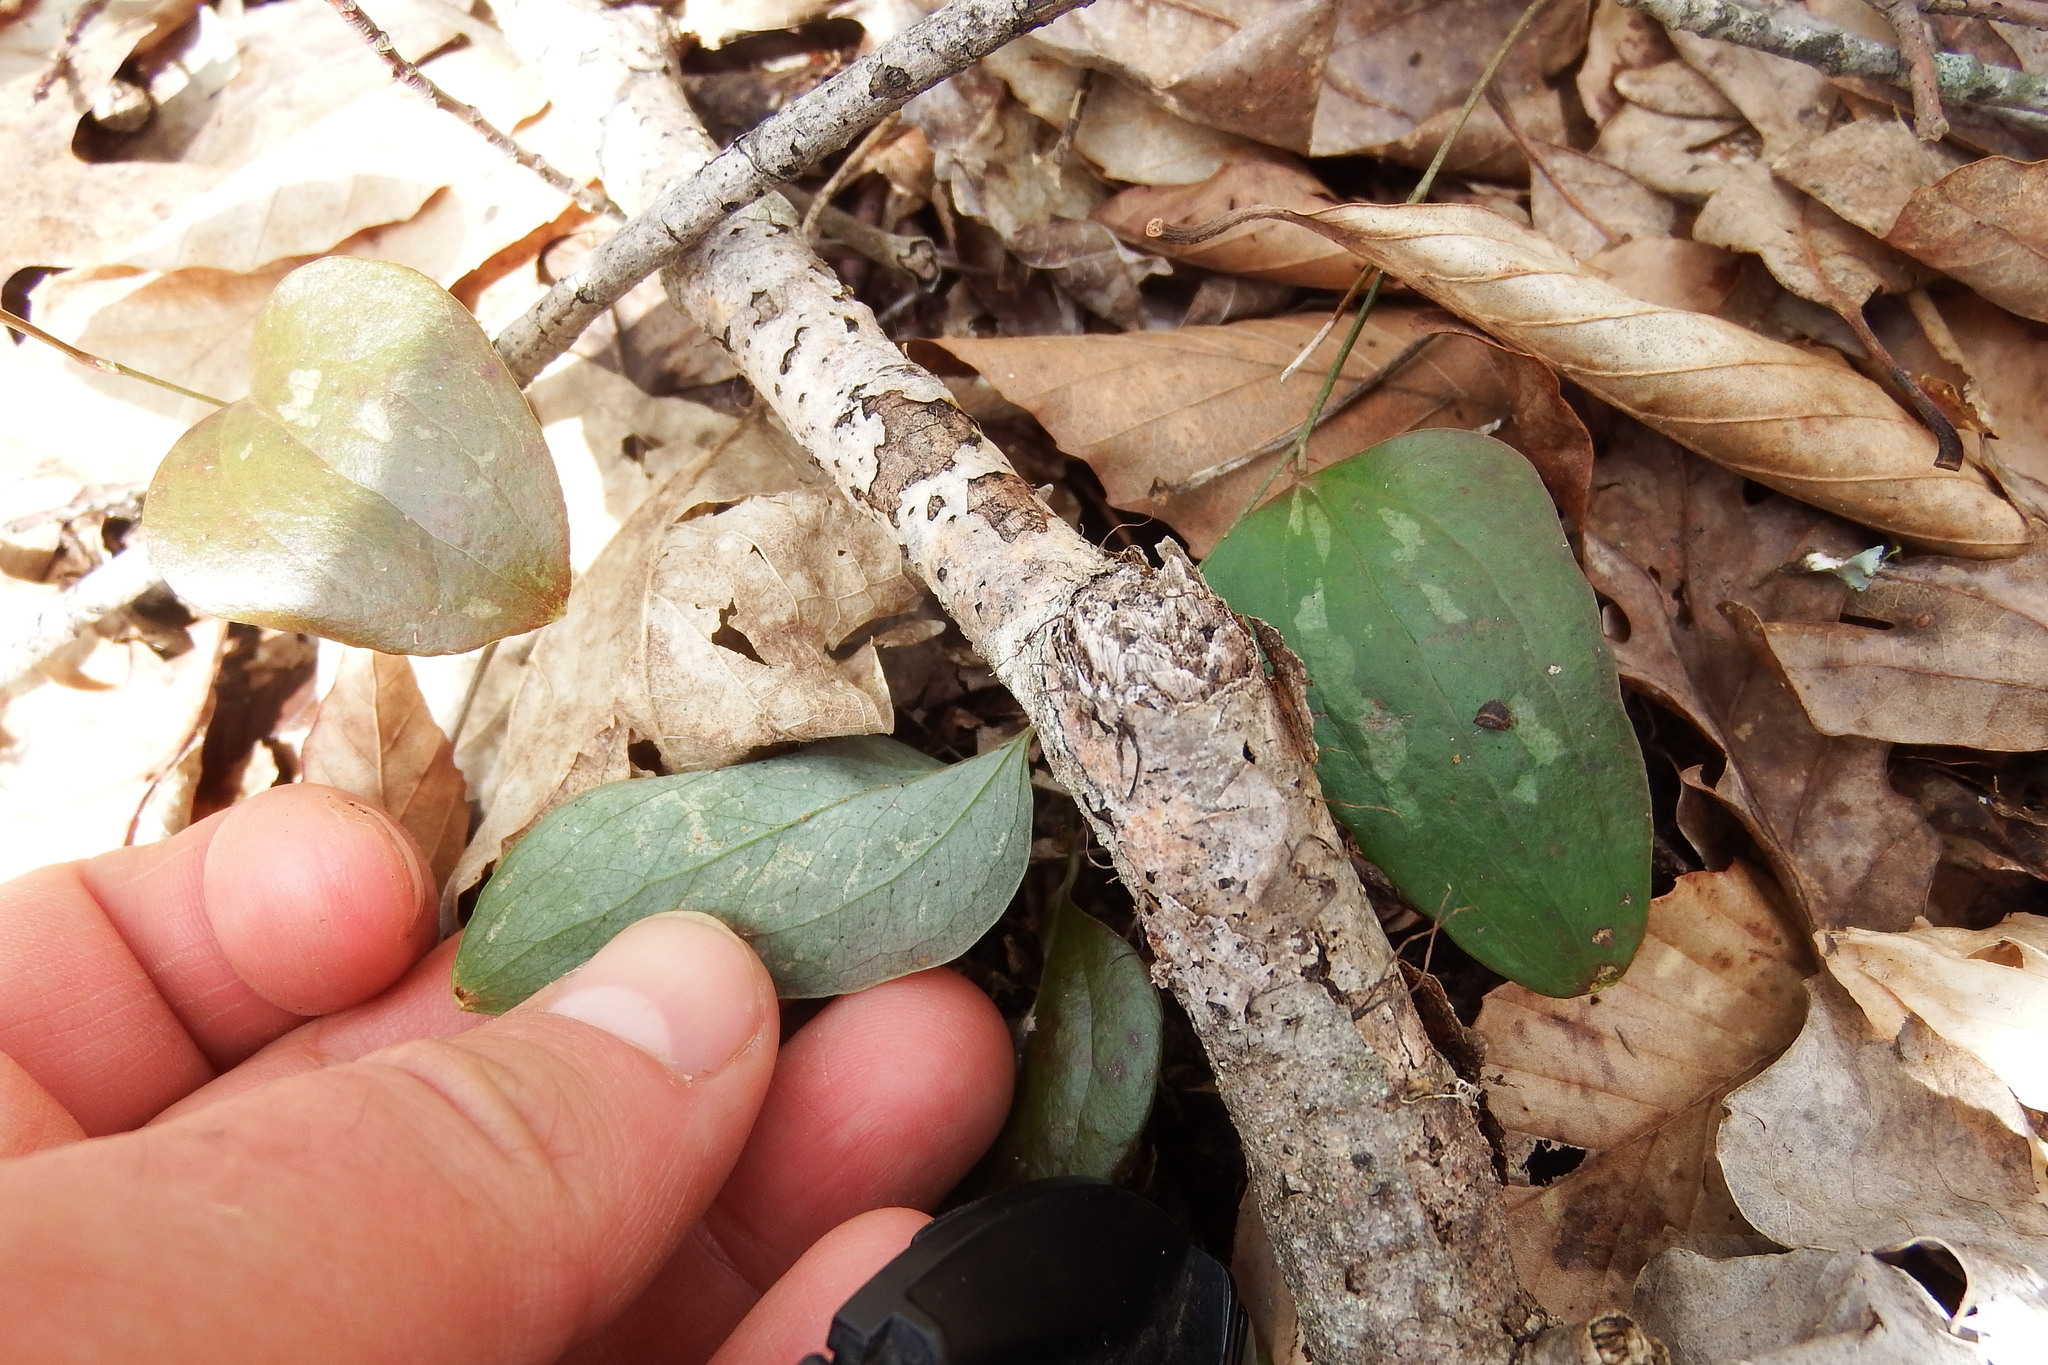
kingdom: Plantae
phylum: Tracheophyta
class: Liliopsida
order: Liliales
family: Smilacaceae
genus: Smilax
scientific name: Smilax glauca
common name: Cat greenbrier
